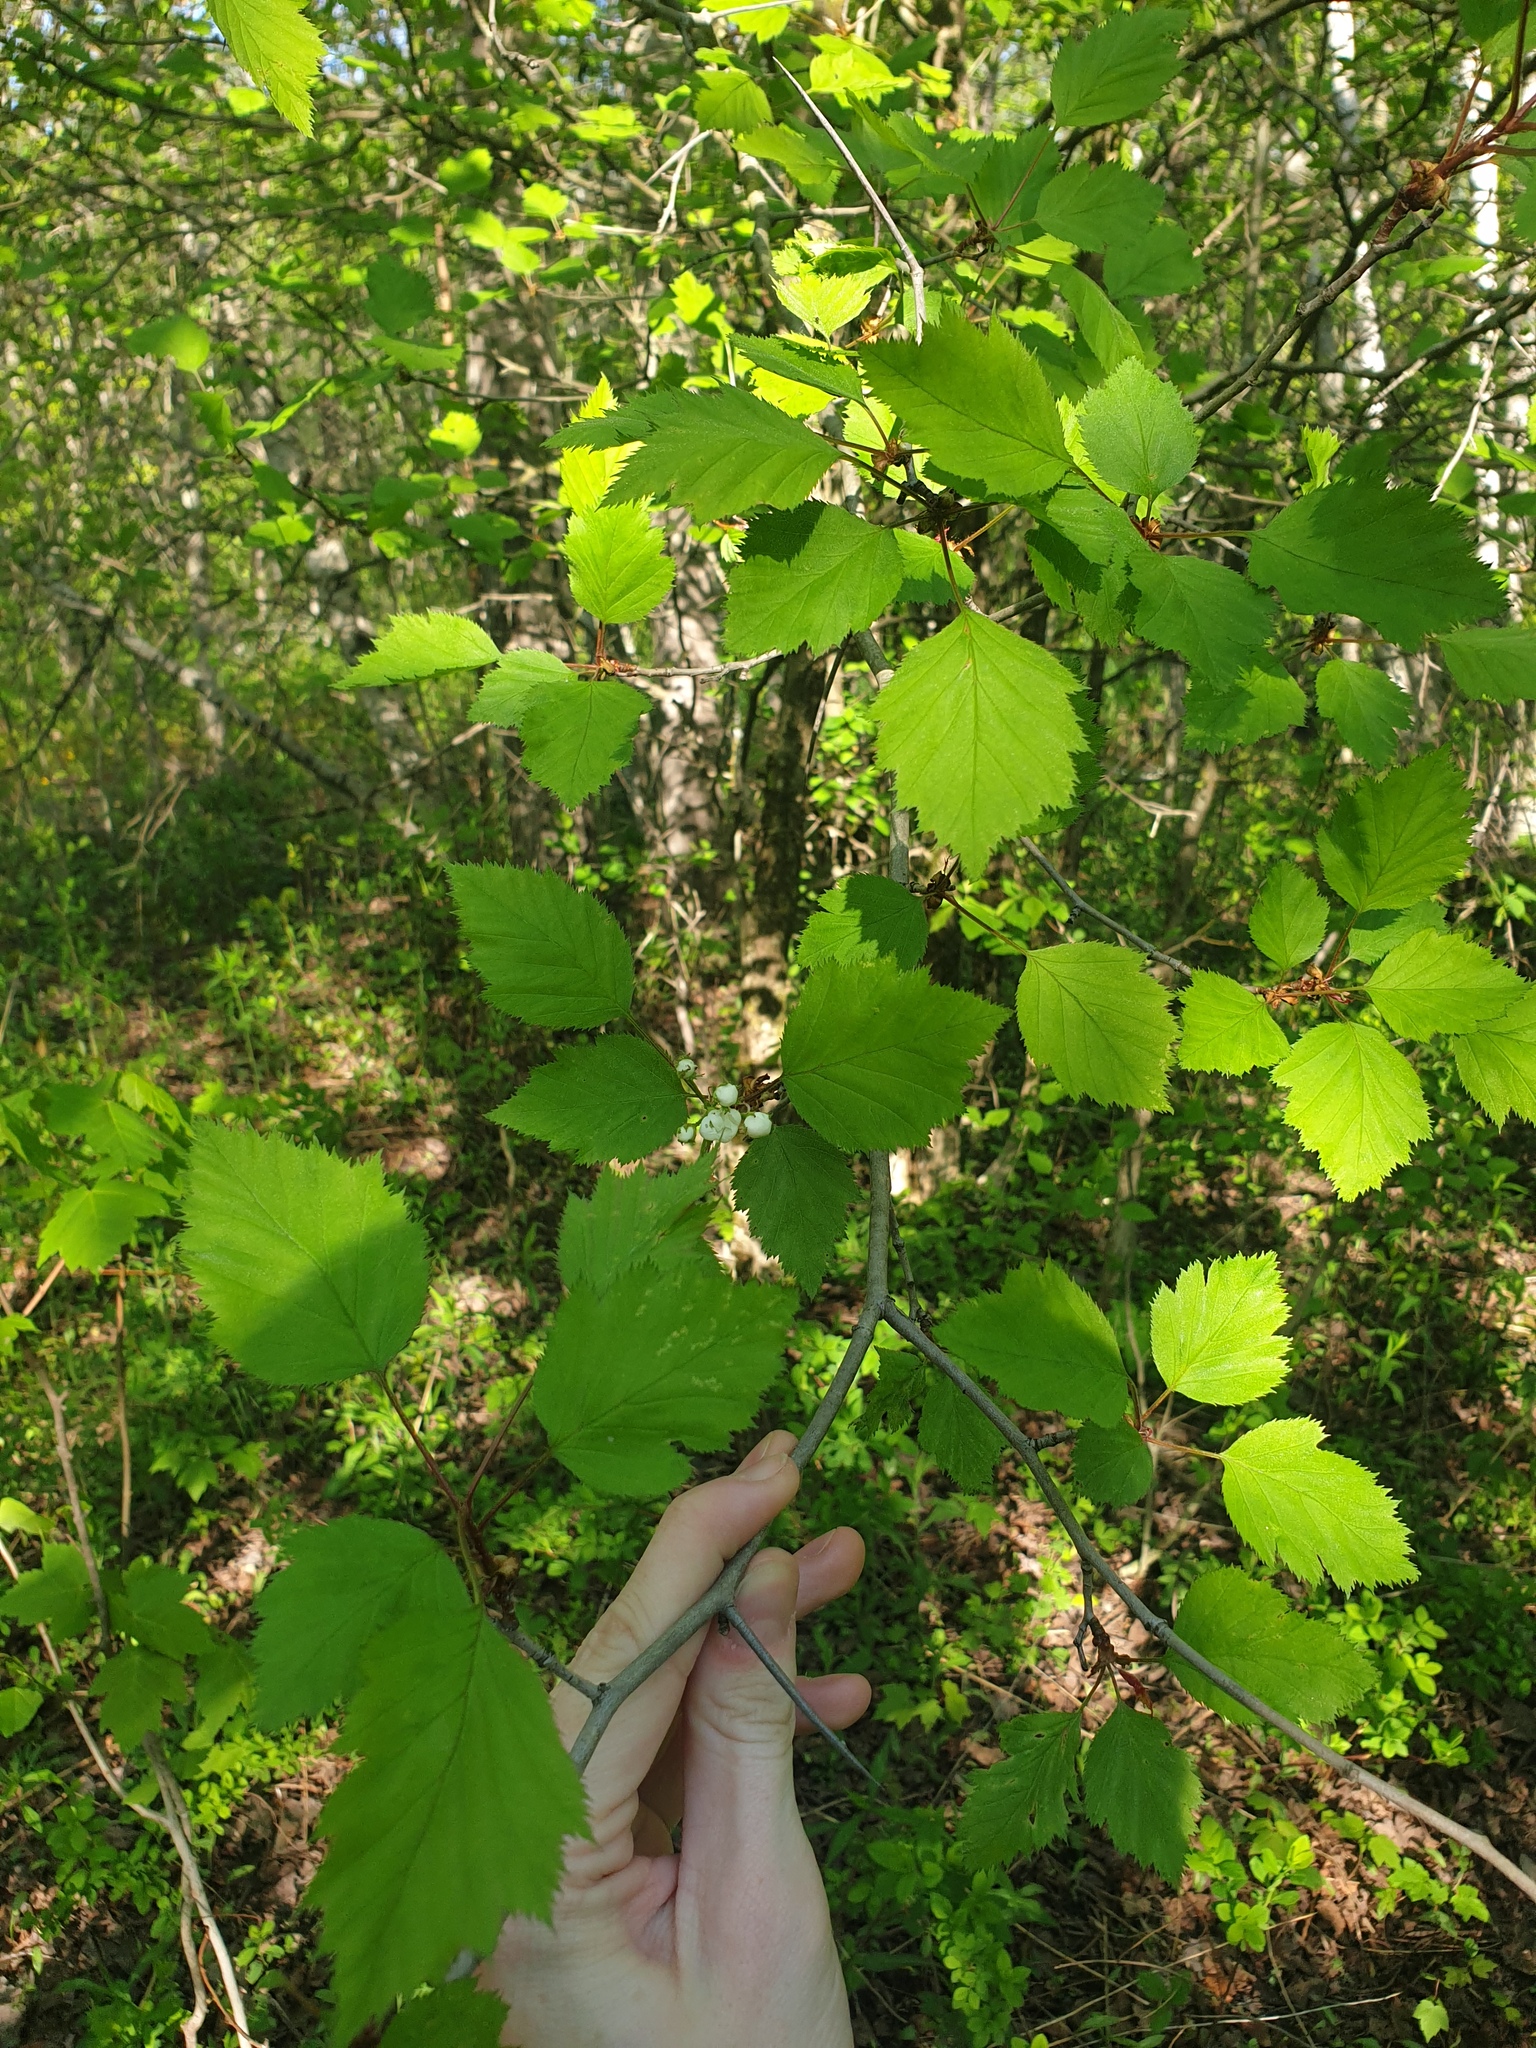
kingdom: Plantae
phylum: Tracheophyta
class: Magnoliopsida
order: Rosales
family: Rosaceae
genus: Crataegus
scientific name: Crataegus holmesiana
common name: Holmes' hawthorn
